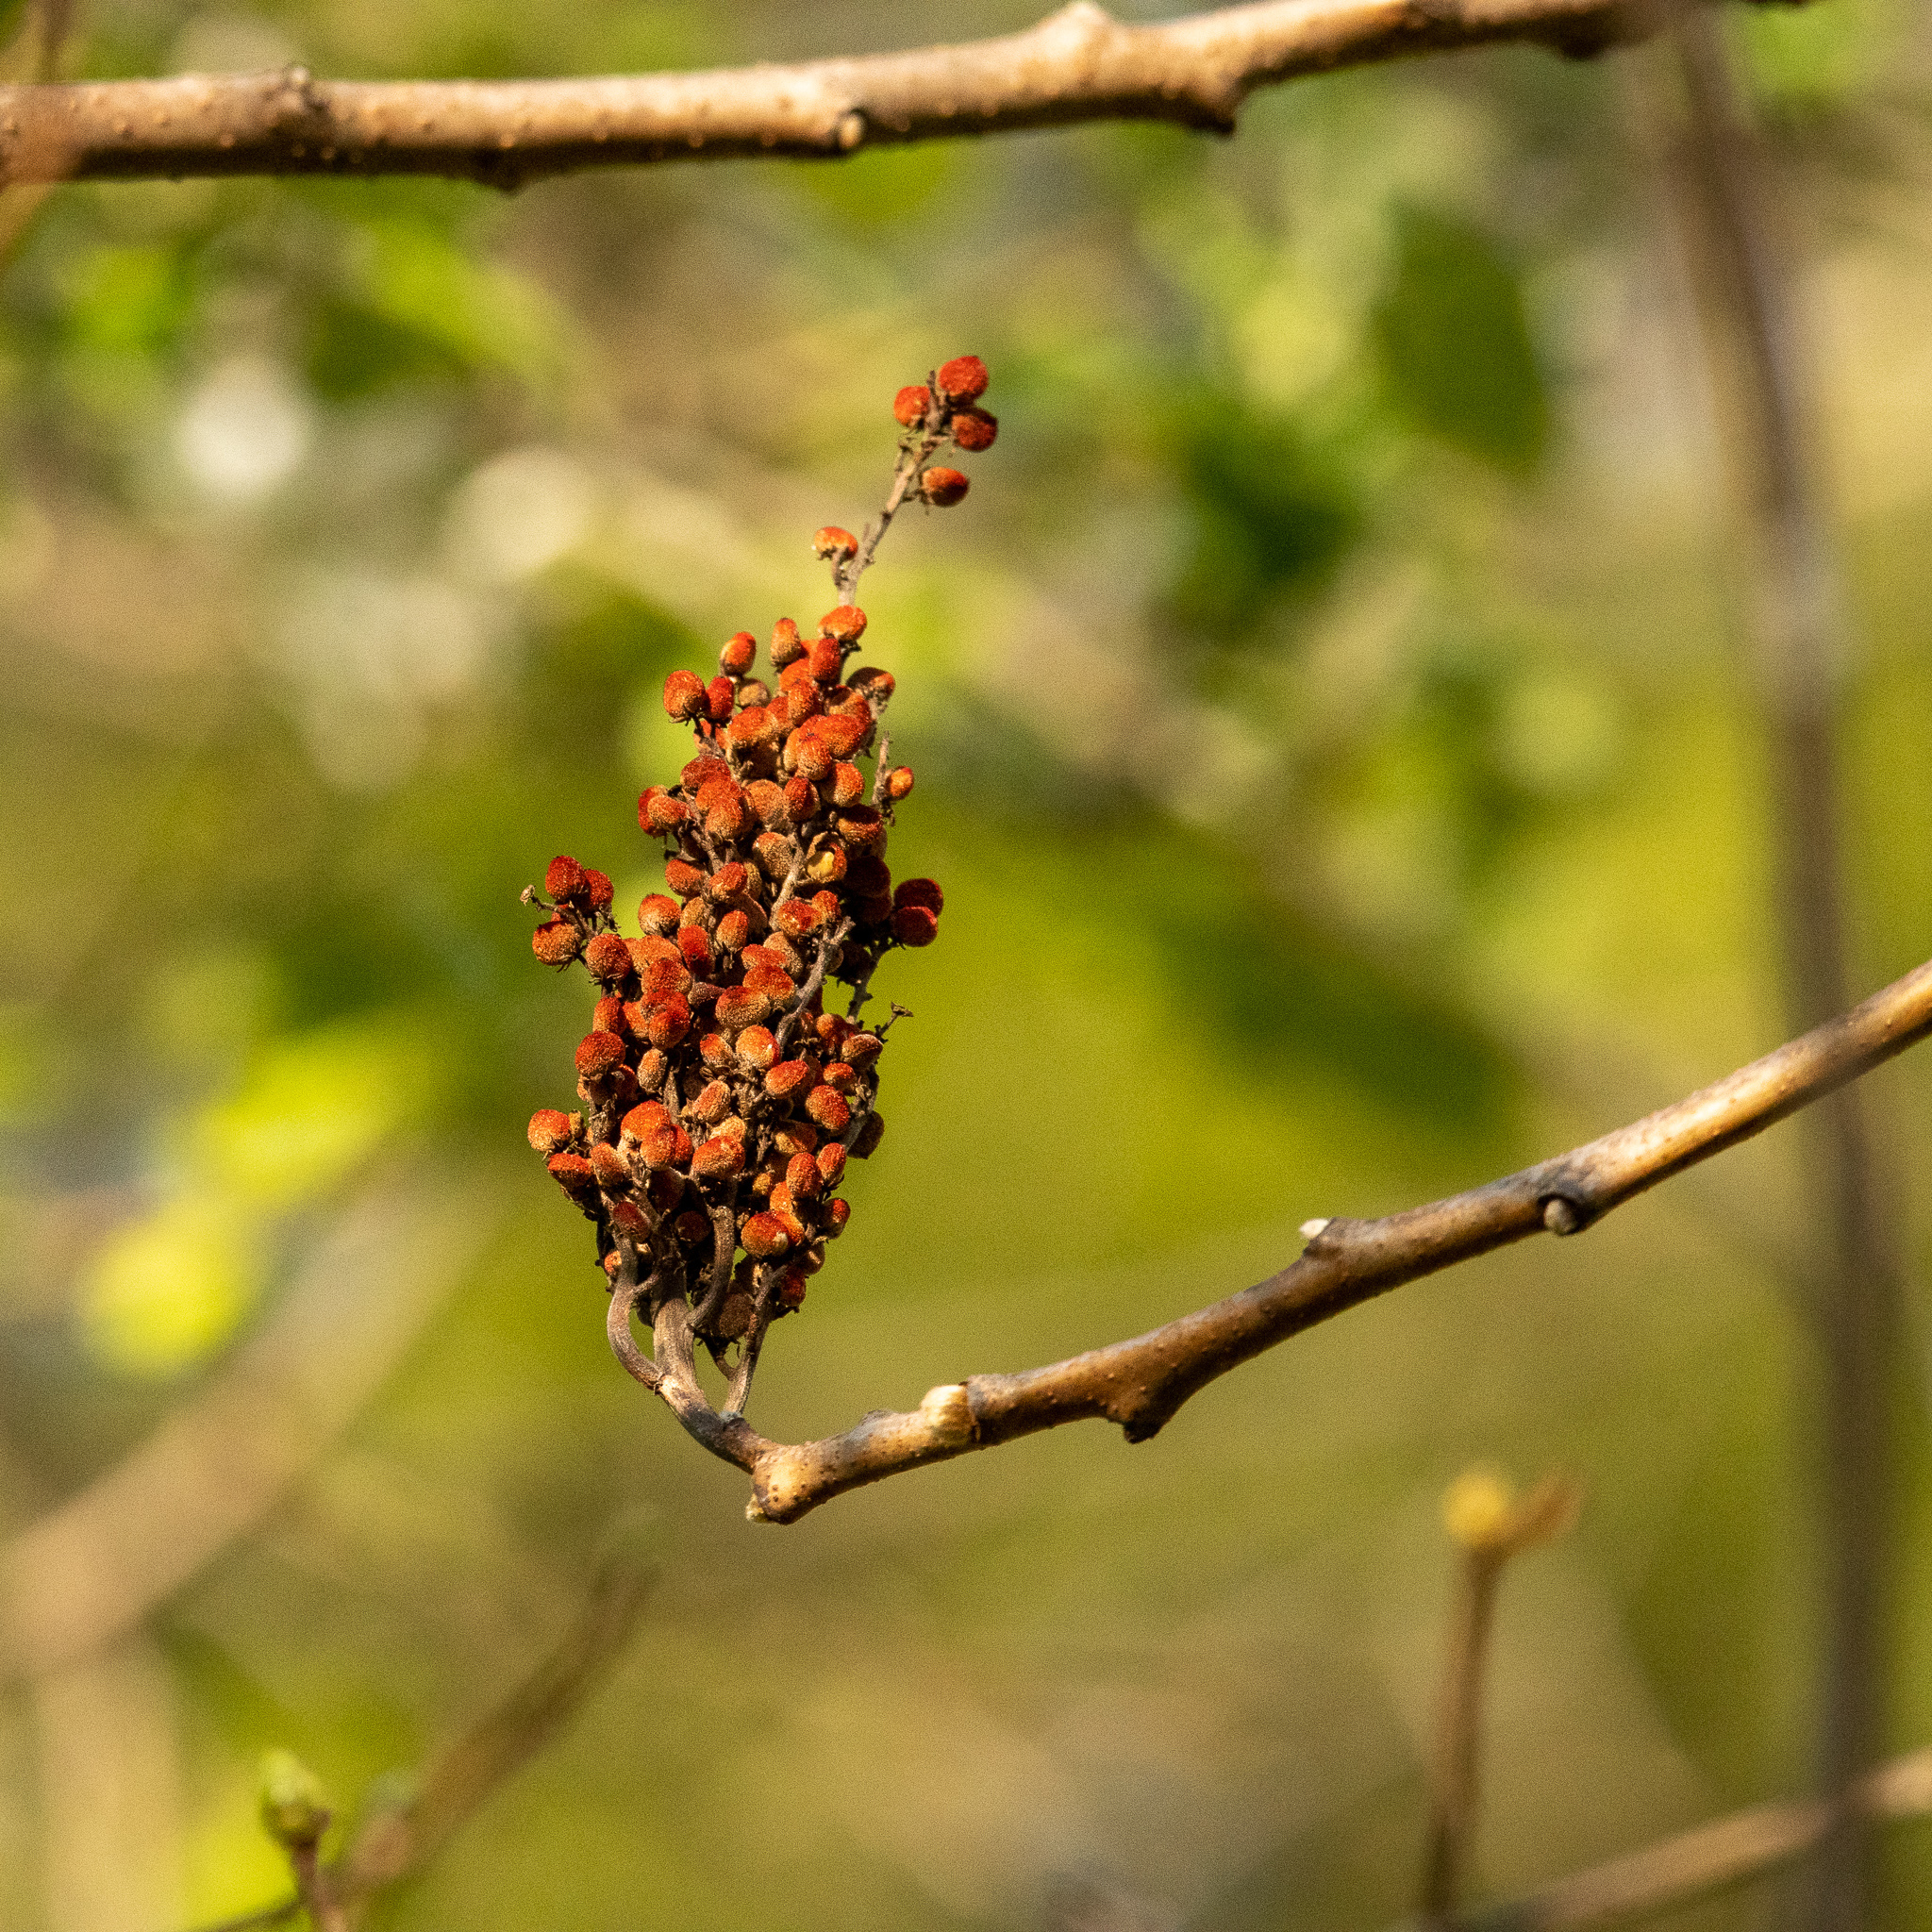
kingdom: Plantae
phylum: Tracheophyta
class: Magnoliopsida
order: Sapindales
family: Anacardiaceae
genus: Rhus
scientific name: Rhus glabra
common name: Scarlet sumac
